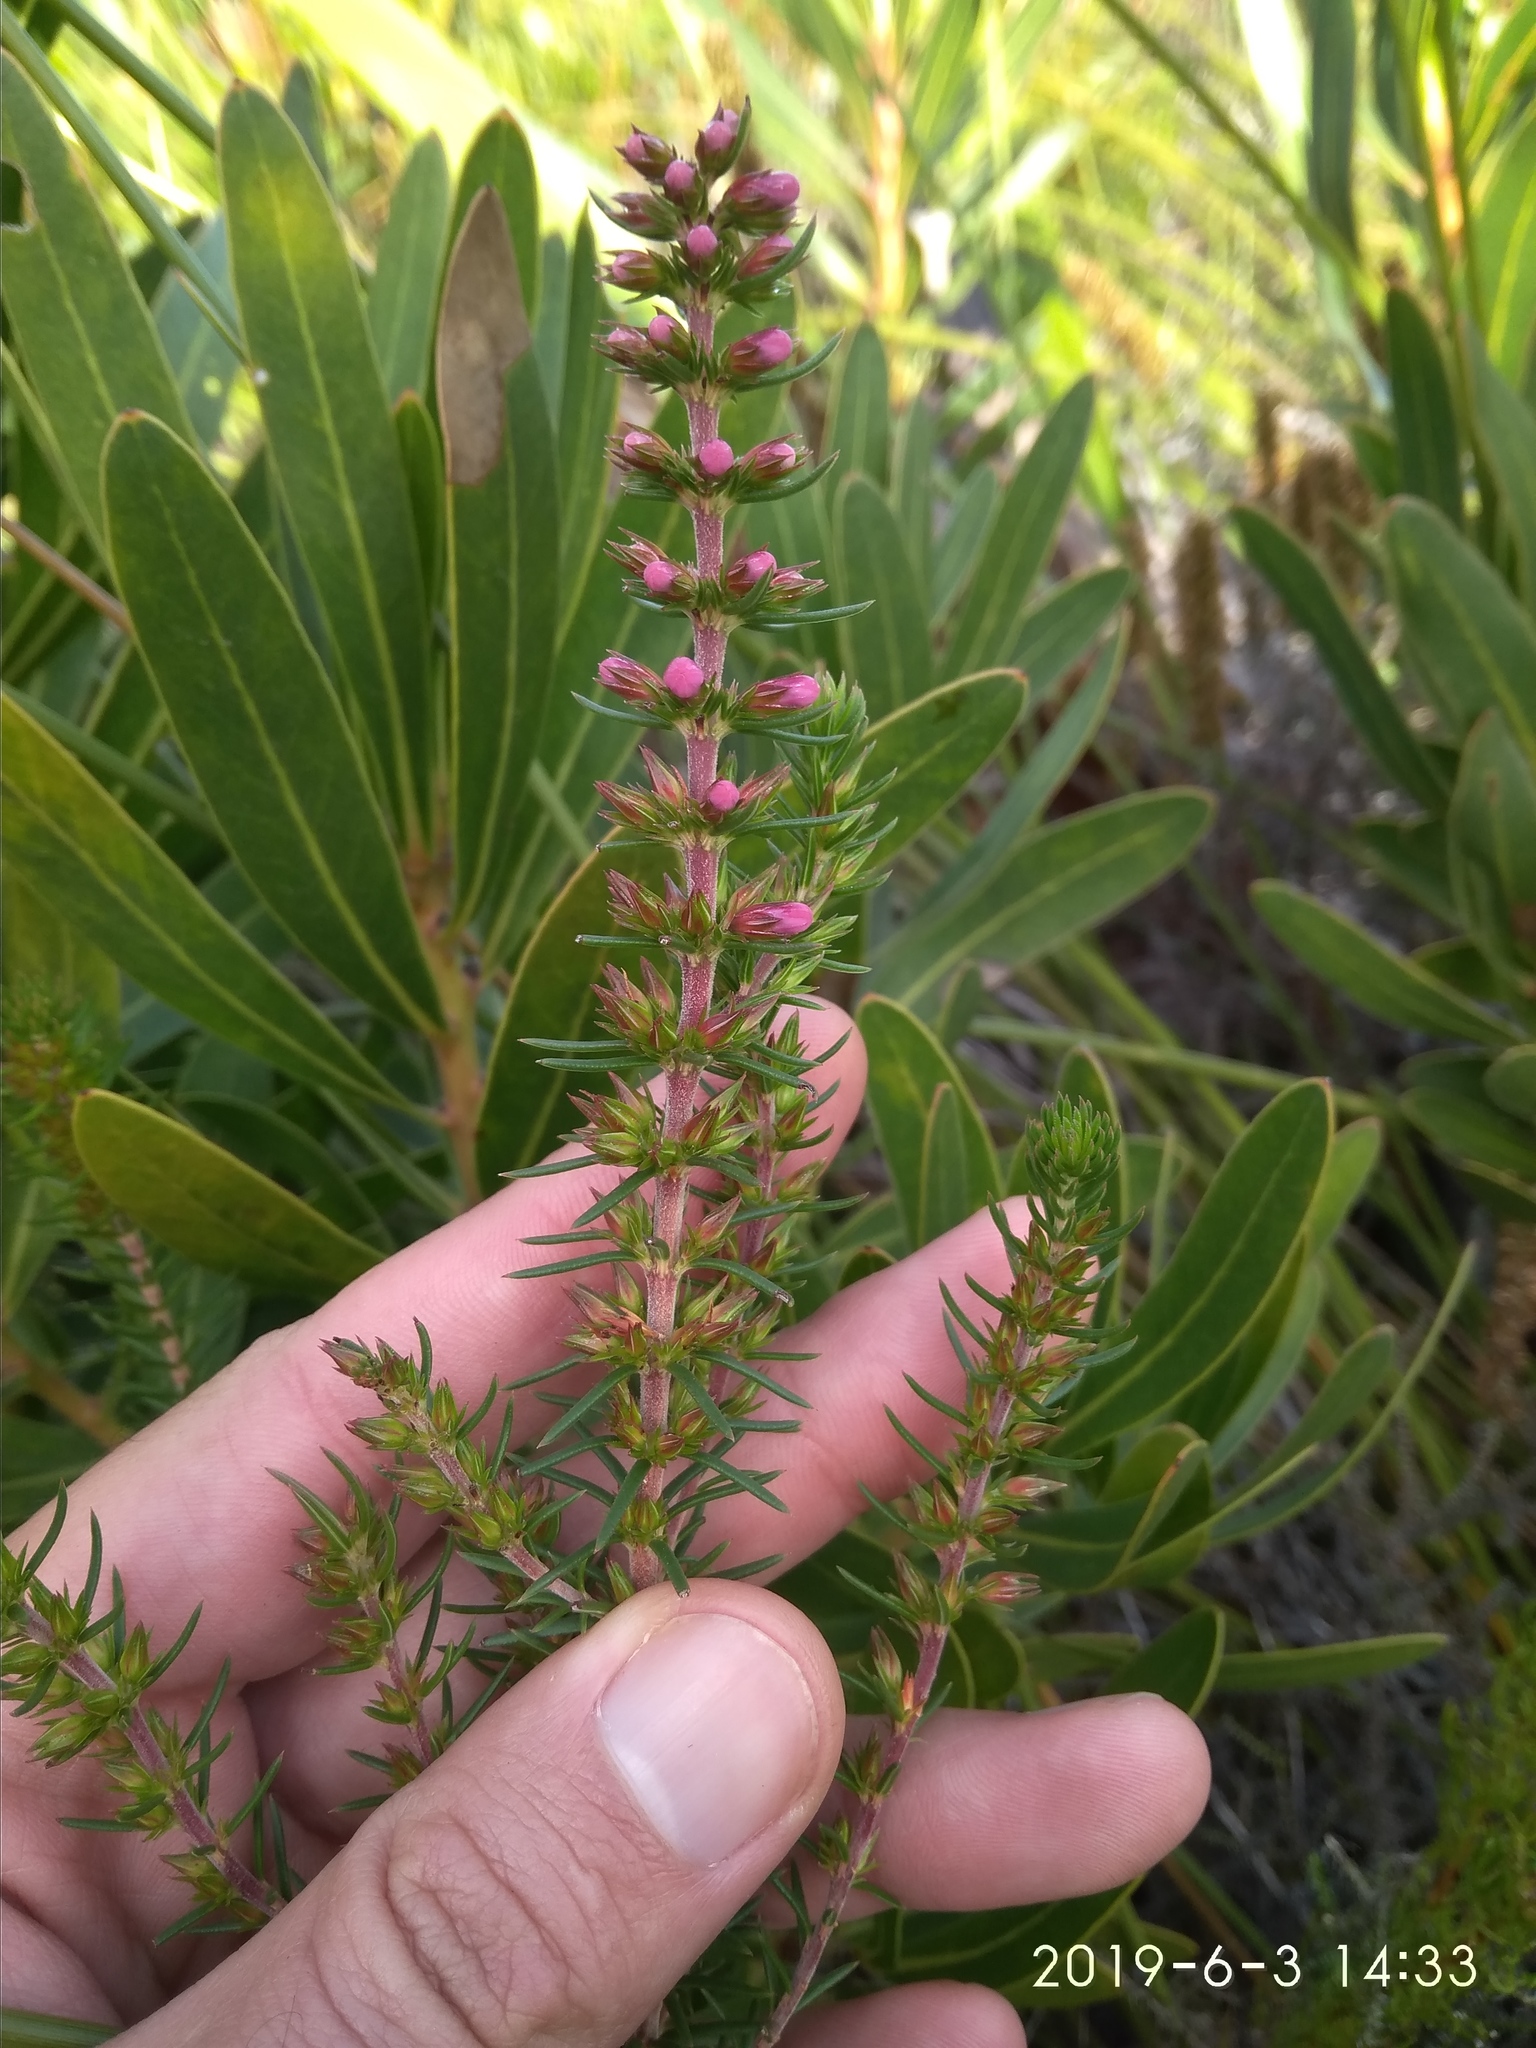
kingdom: Plantae
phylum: Tracheophyta
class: Magnoliopsida
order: Ericales
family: Ericaceae
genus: Erica
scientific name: Erica abietina
